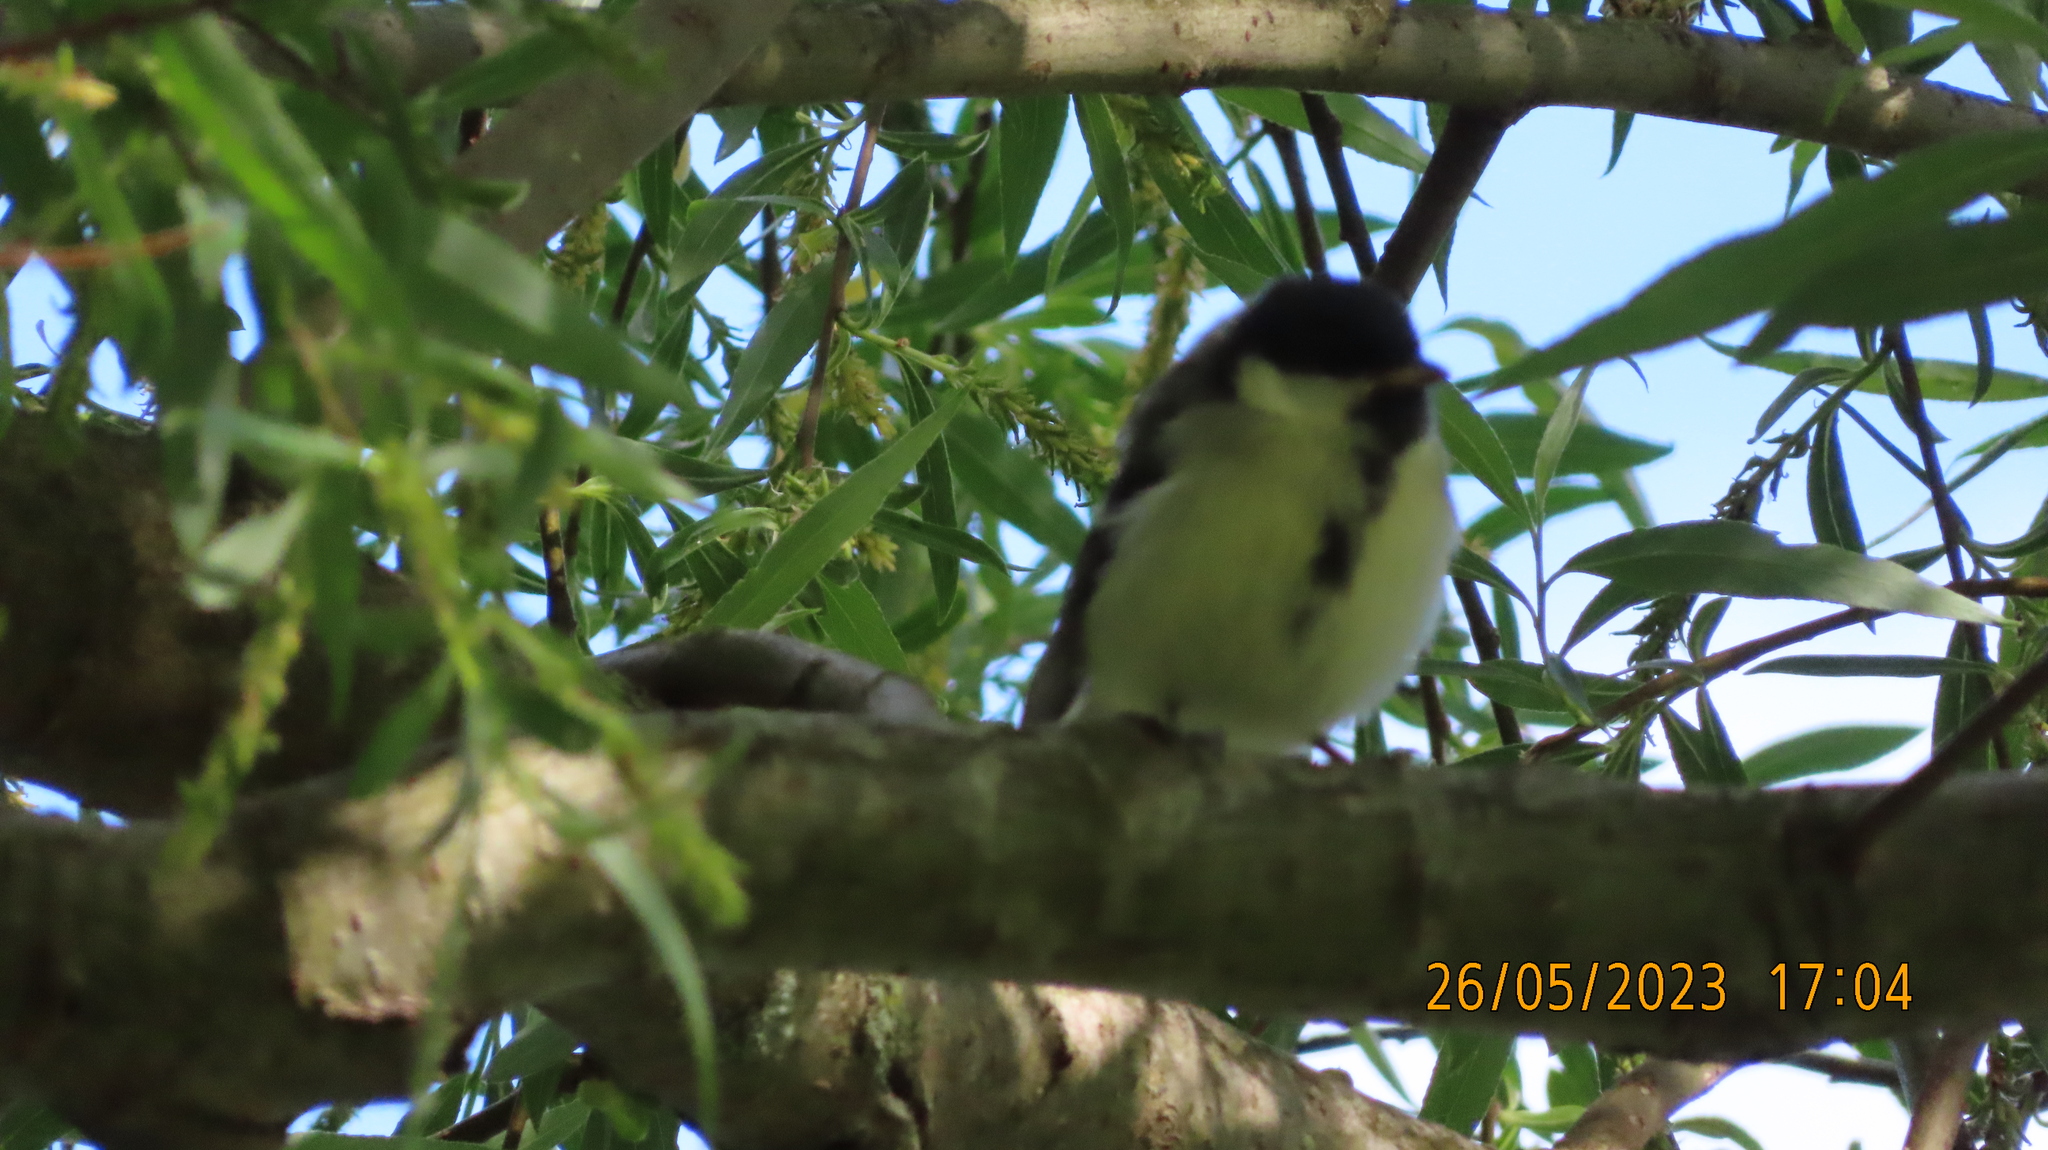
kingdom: Animalia
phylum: Chordata
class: Aves
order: Passeriformes
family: Paridae
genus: Parus
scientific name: Parus major
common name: Great tit
